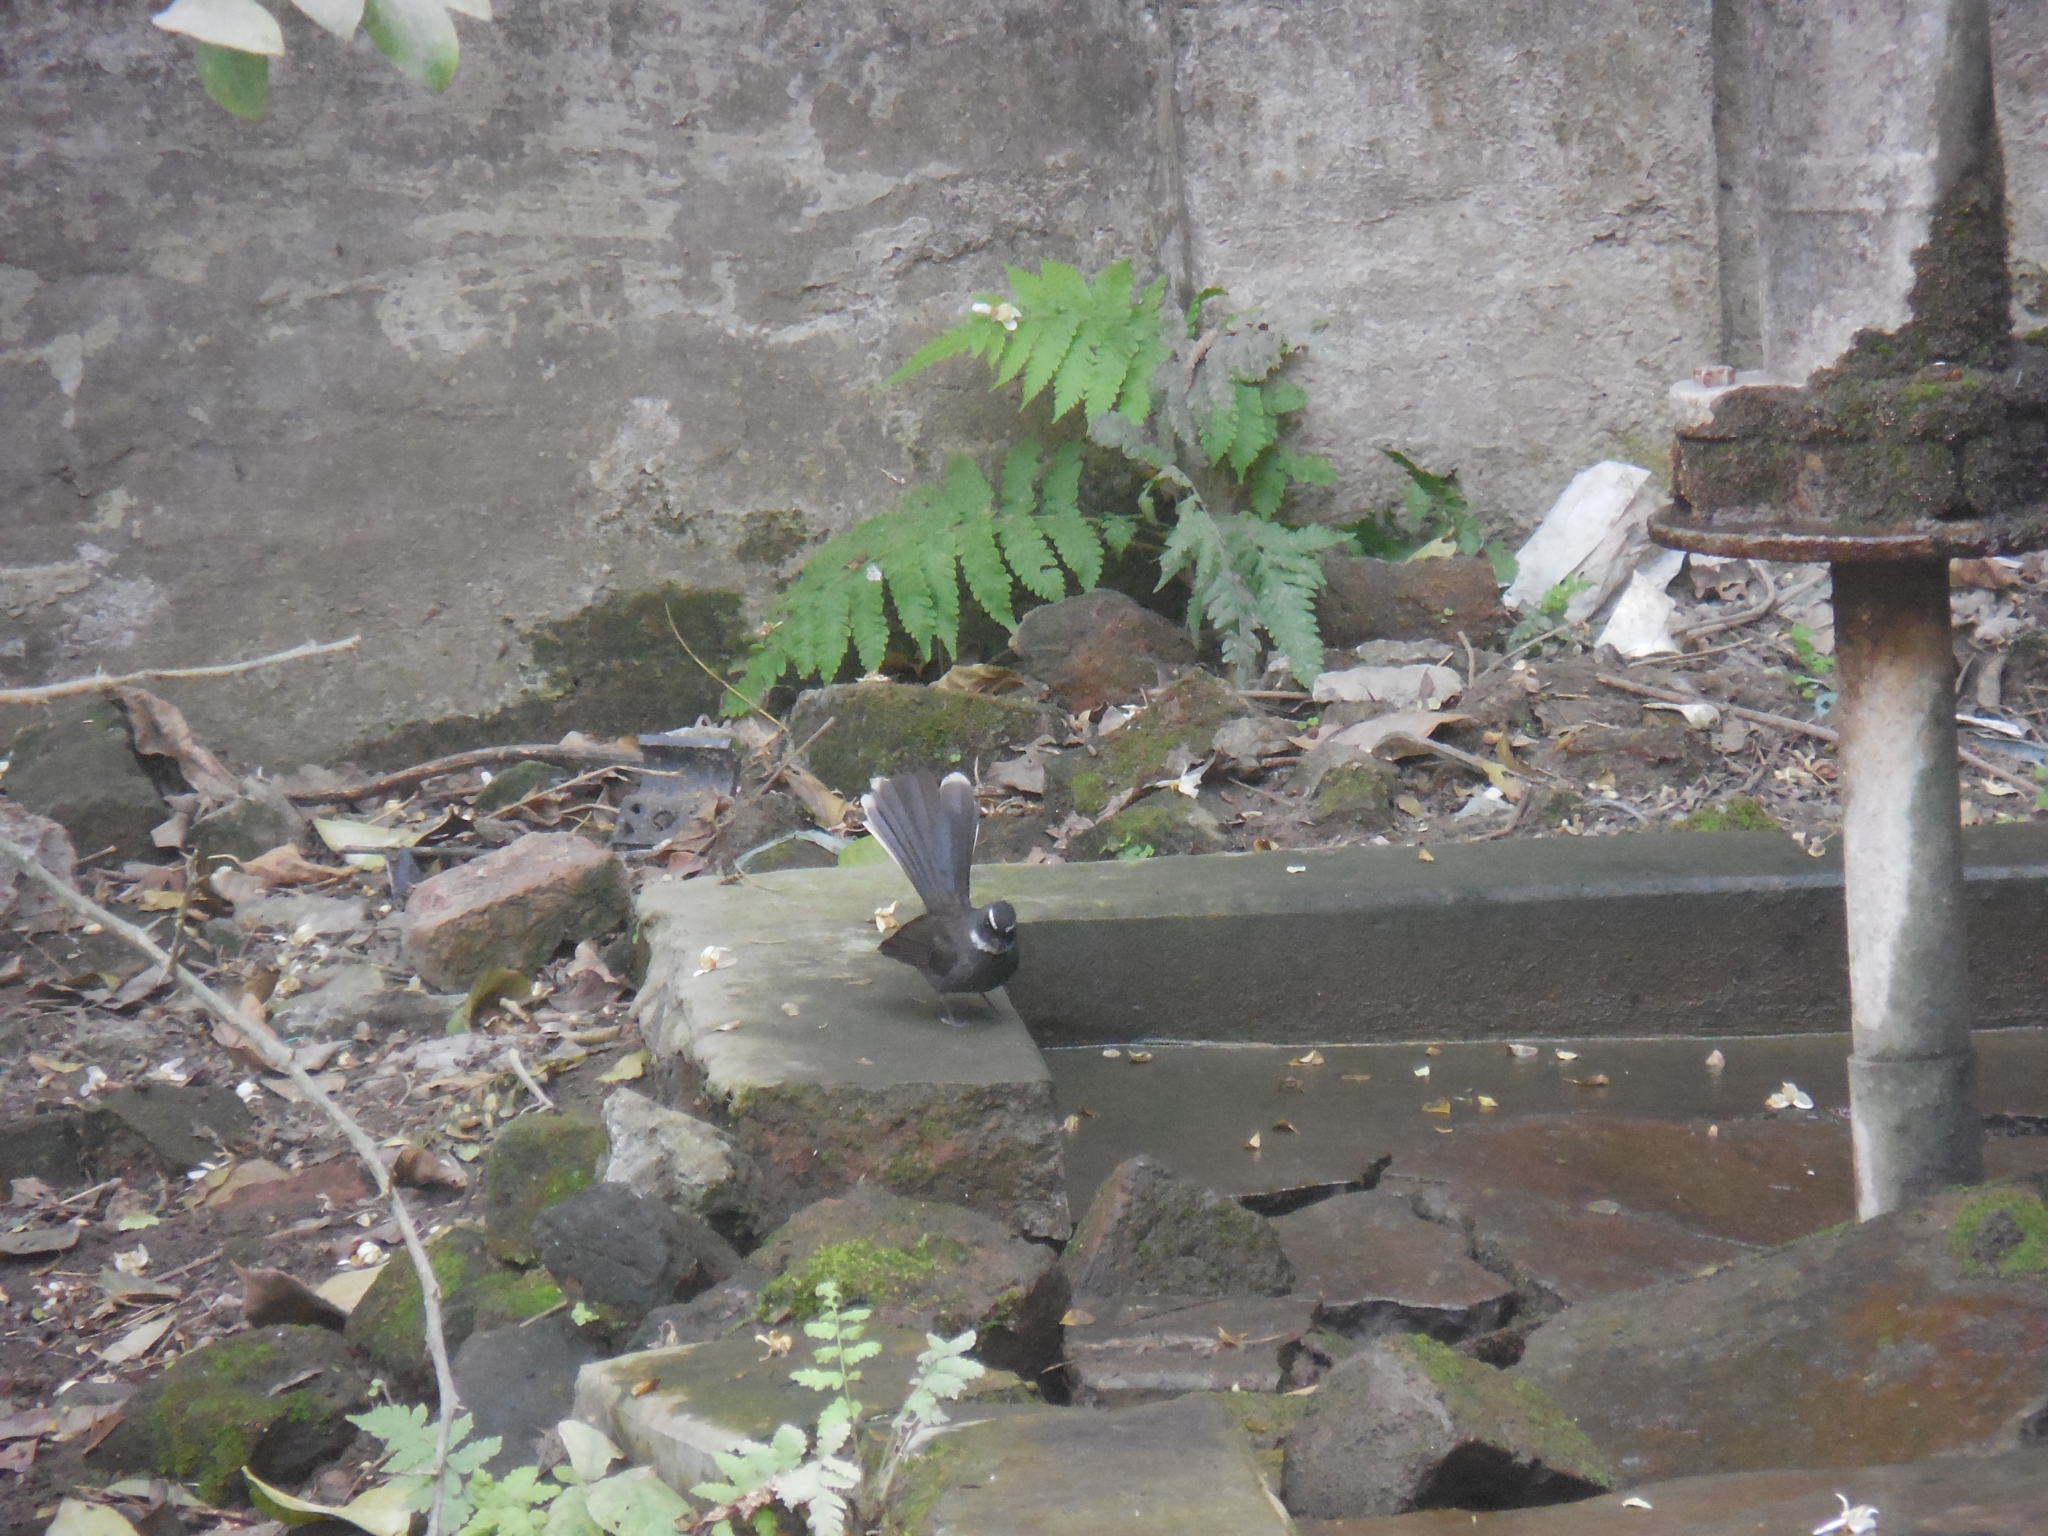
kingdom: Animalia
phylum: Chordata
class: Aves
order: Passeriformes
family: Rhipiduridae
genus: Rhipidura
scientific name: Rhipidura albicollis
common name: White-throated fantail
